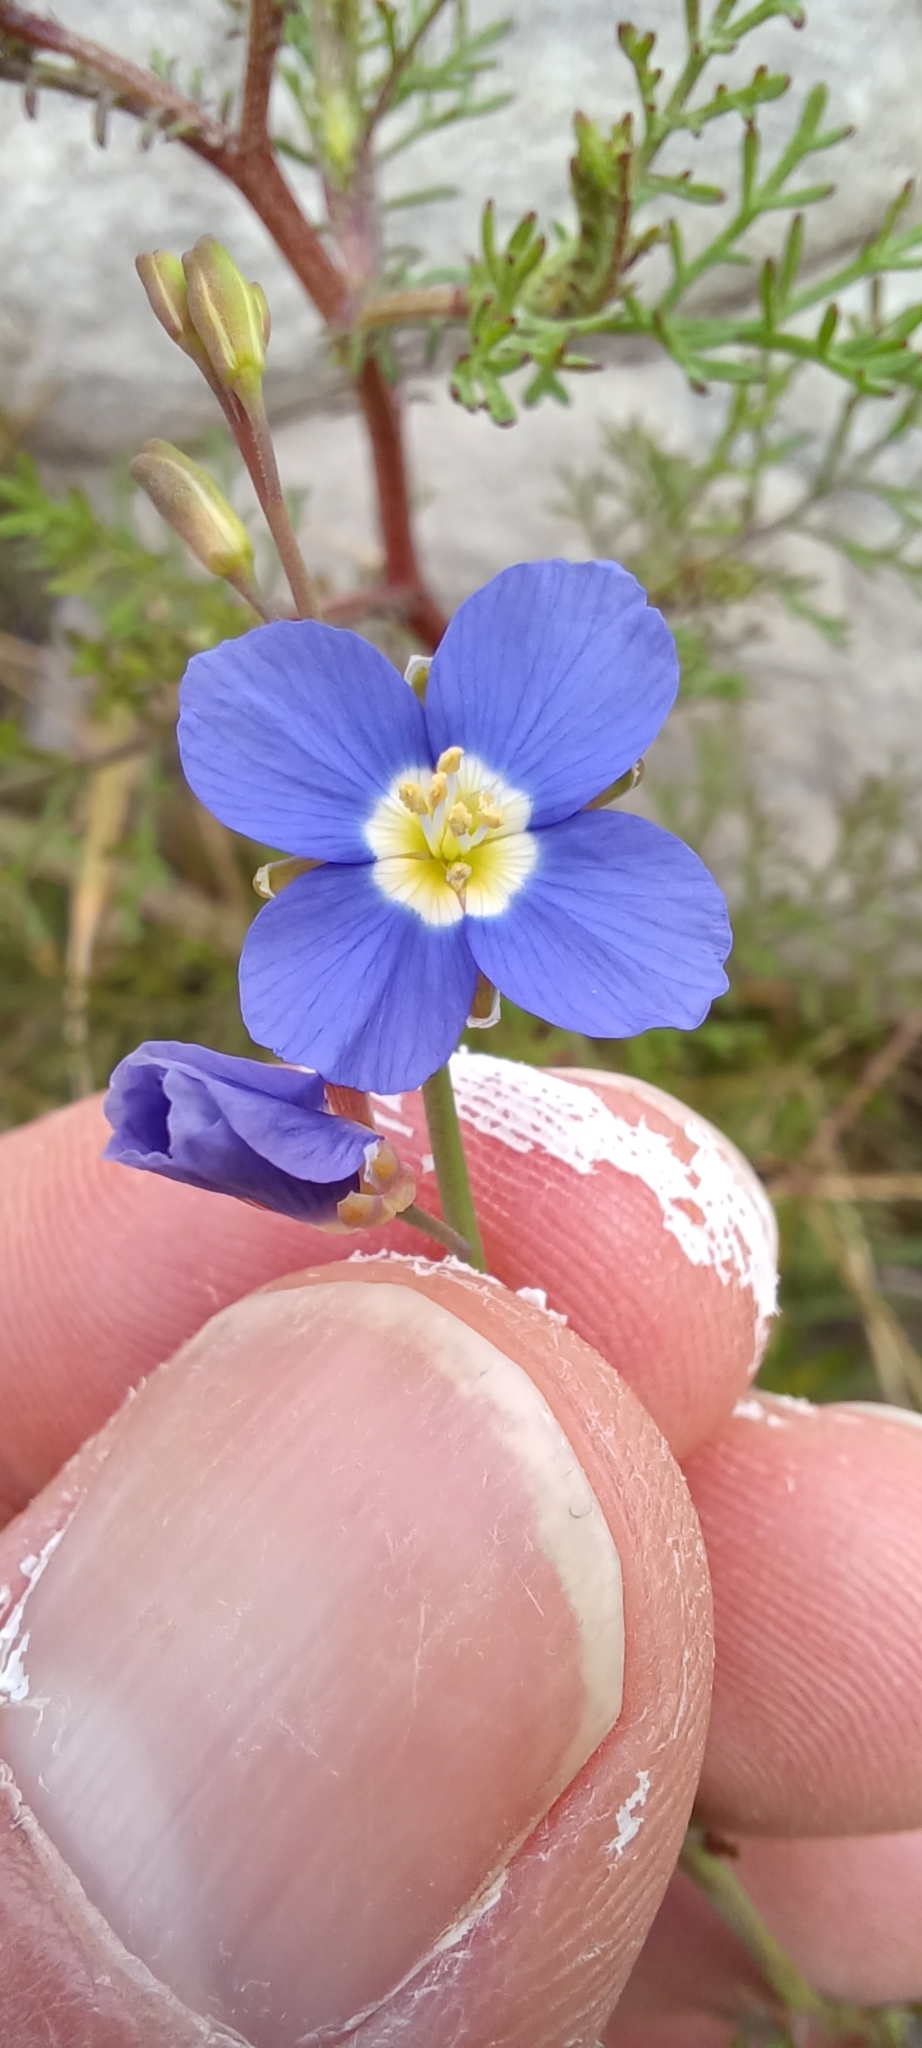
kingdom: Plantae
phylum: Tracheophyta
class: Magnoliopsida
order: Brassicales
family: Brassicaceae
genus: Heliophila
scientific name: Heliophila bulbostyla
